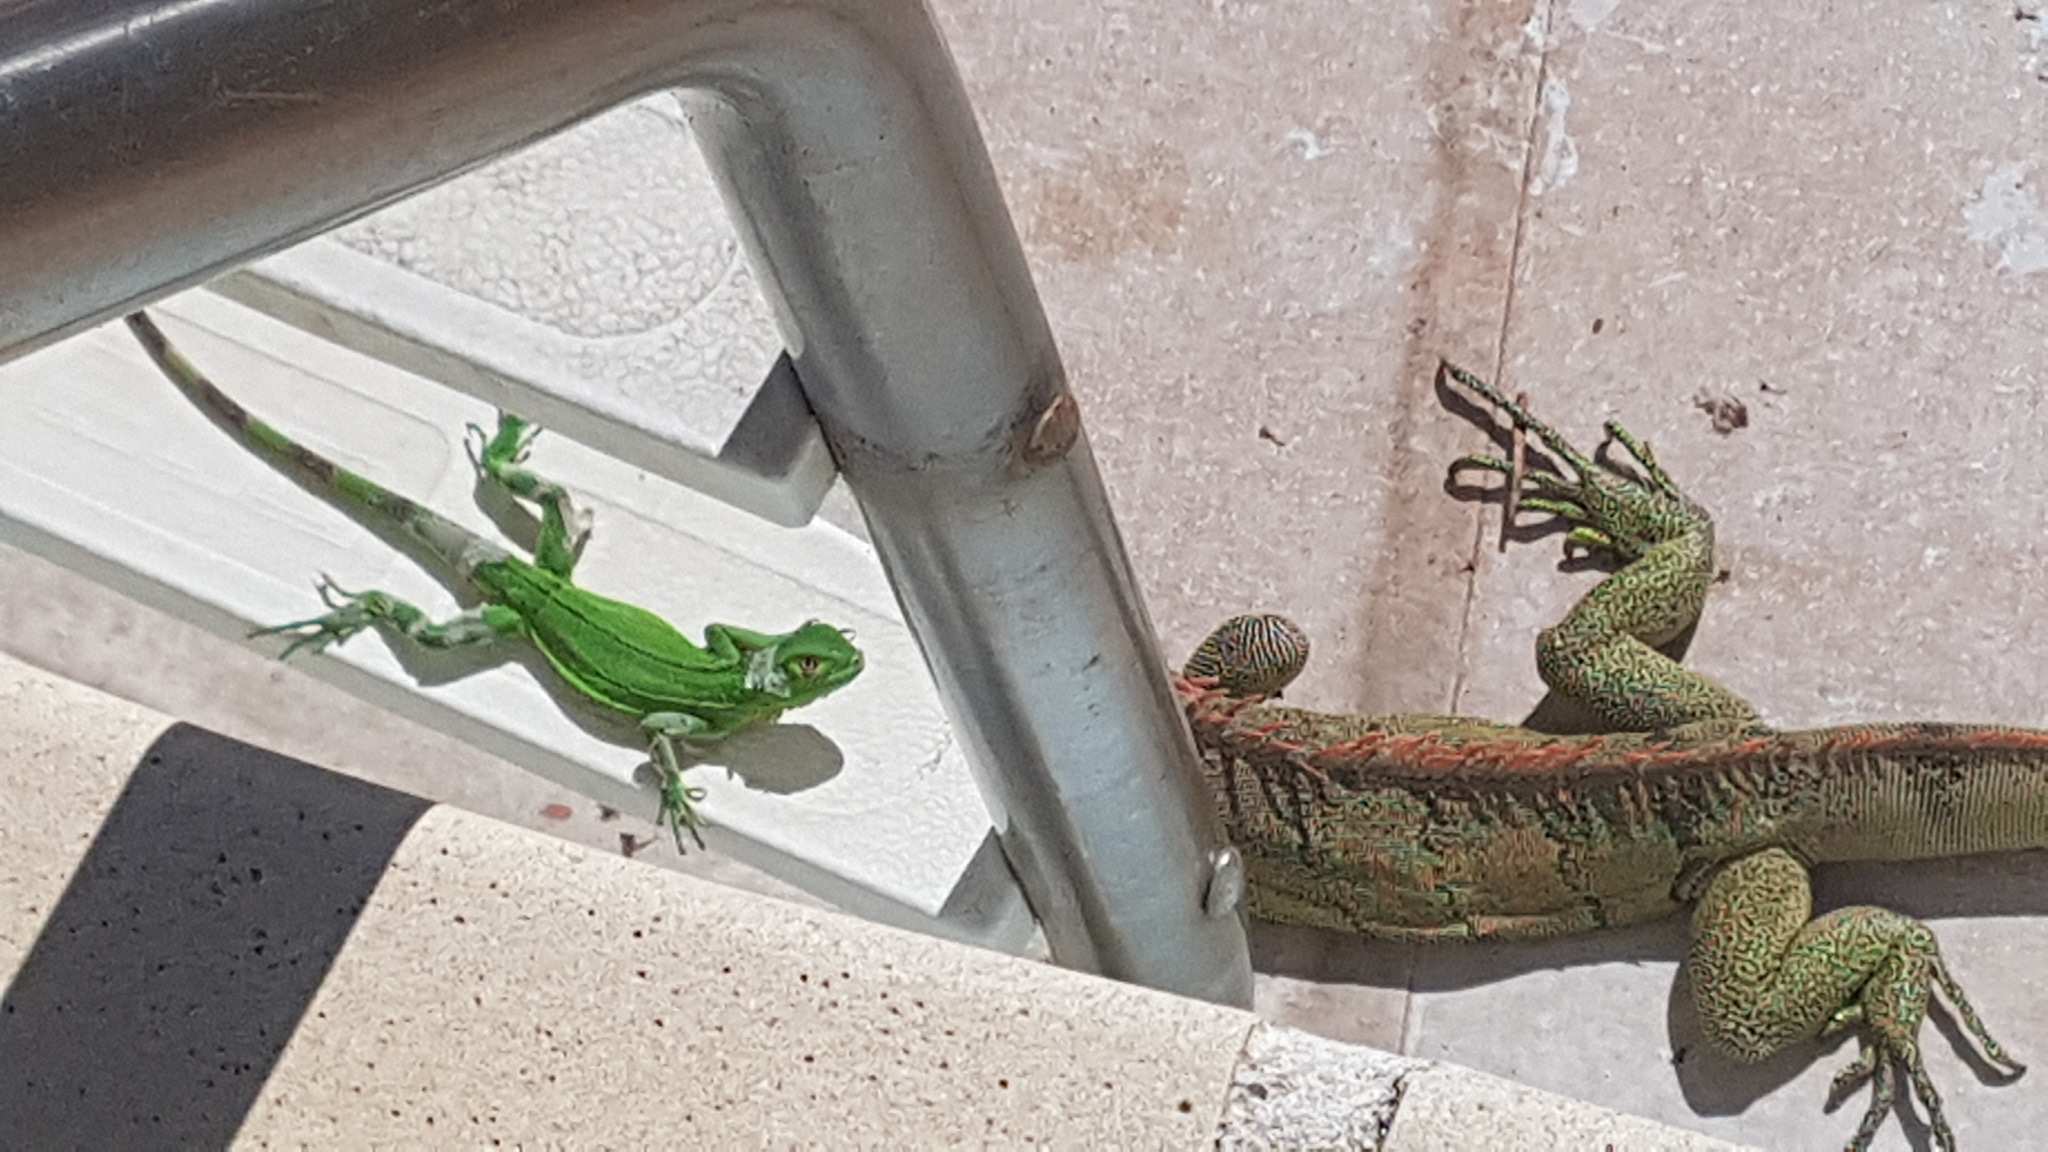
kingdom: Animalia
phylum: Chordata
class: Squamata
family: Iguanidae
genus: Iguana
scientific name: Iguana iguana
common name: Green iguana
